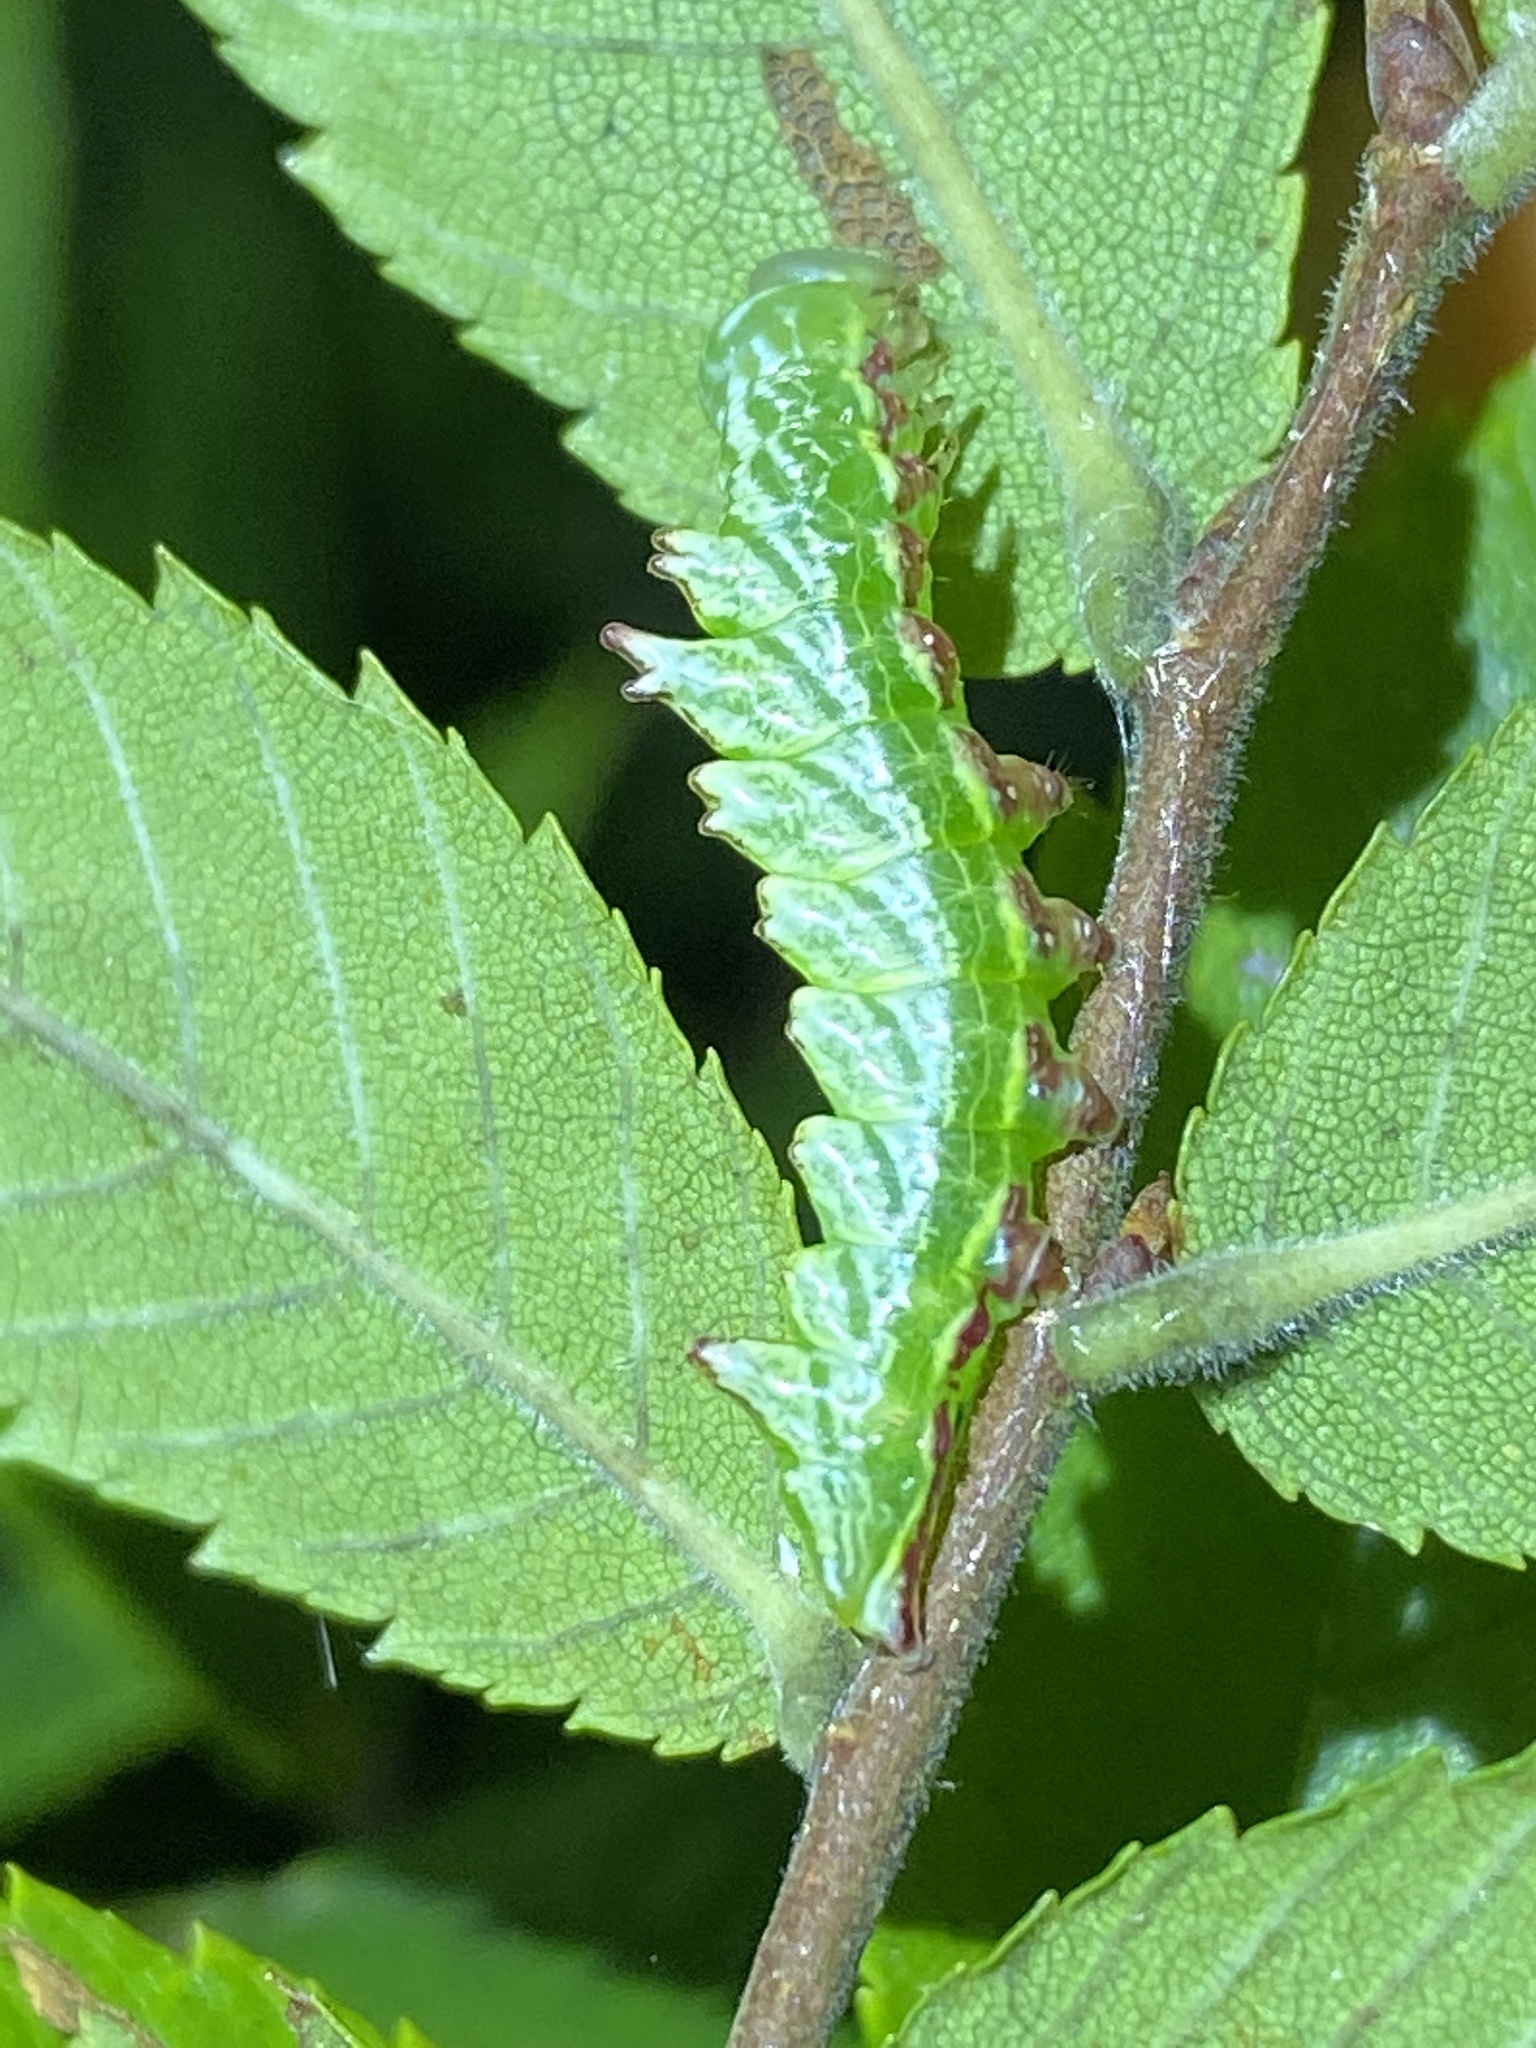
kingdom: Animalia
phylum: Arthropoda
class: Insecta
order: Lepidoptera
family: Notodontidae
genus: Nerice
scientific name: Nerice bidentata
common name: Double-toothed prominent
